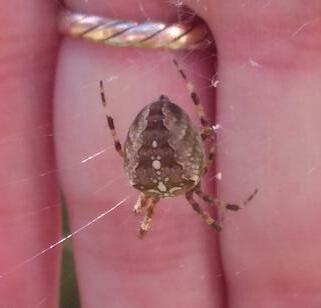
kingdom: Animalia
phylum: Arthropoda
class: Arachnida
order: Araneae
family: Araneidae
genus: Araneus
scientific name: Araneus diadematus
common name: Cross orbweaver
